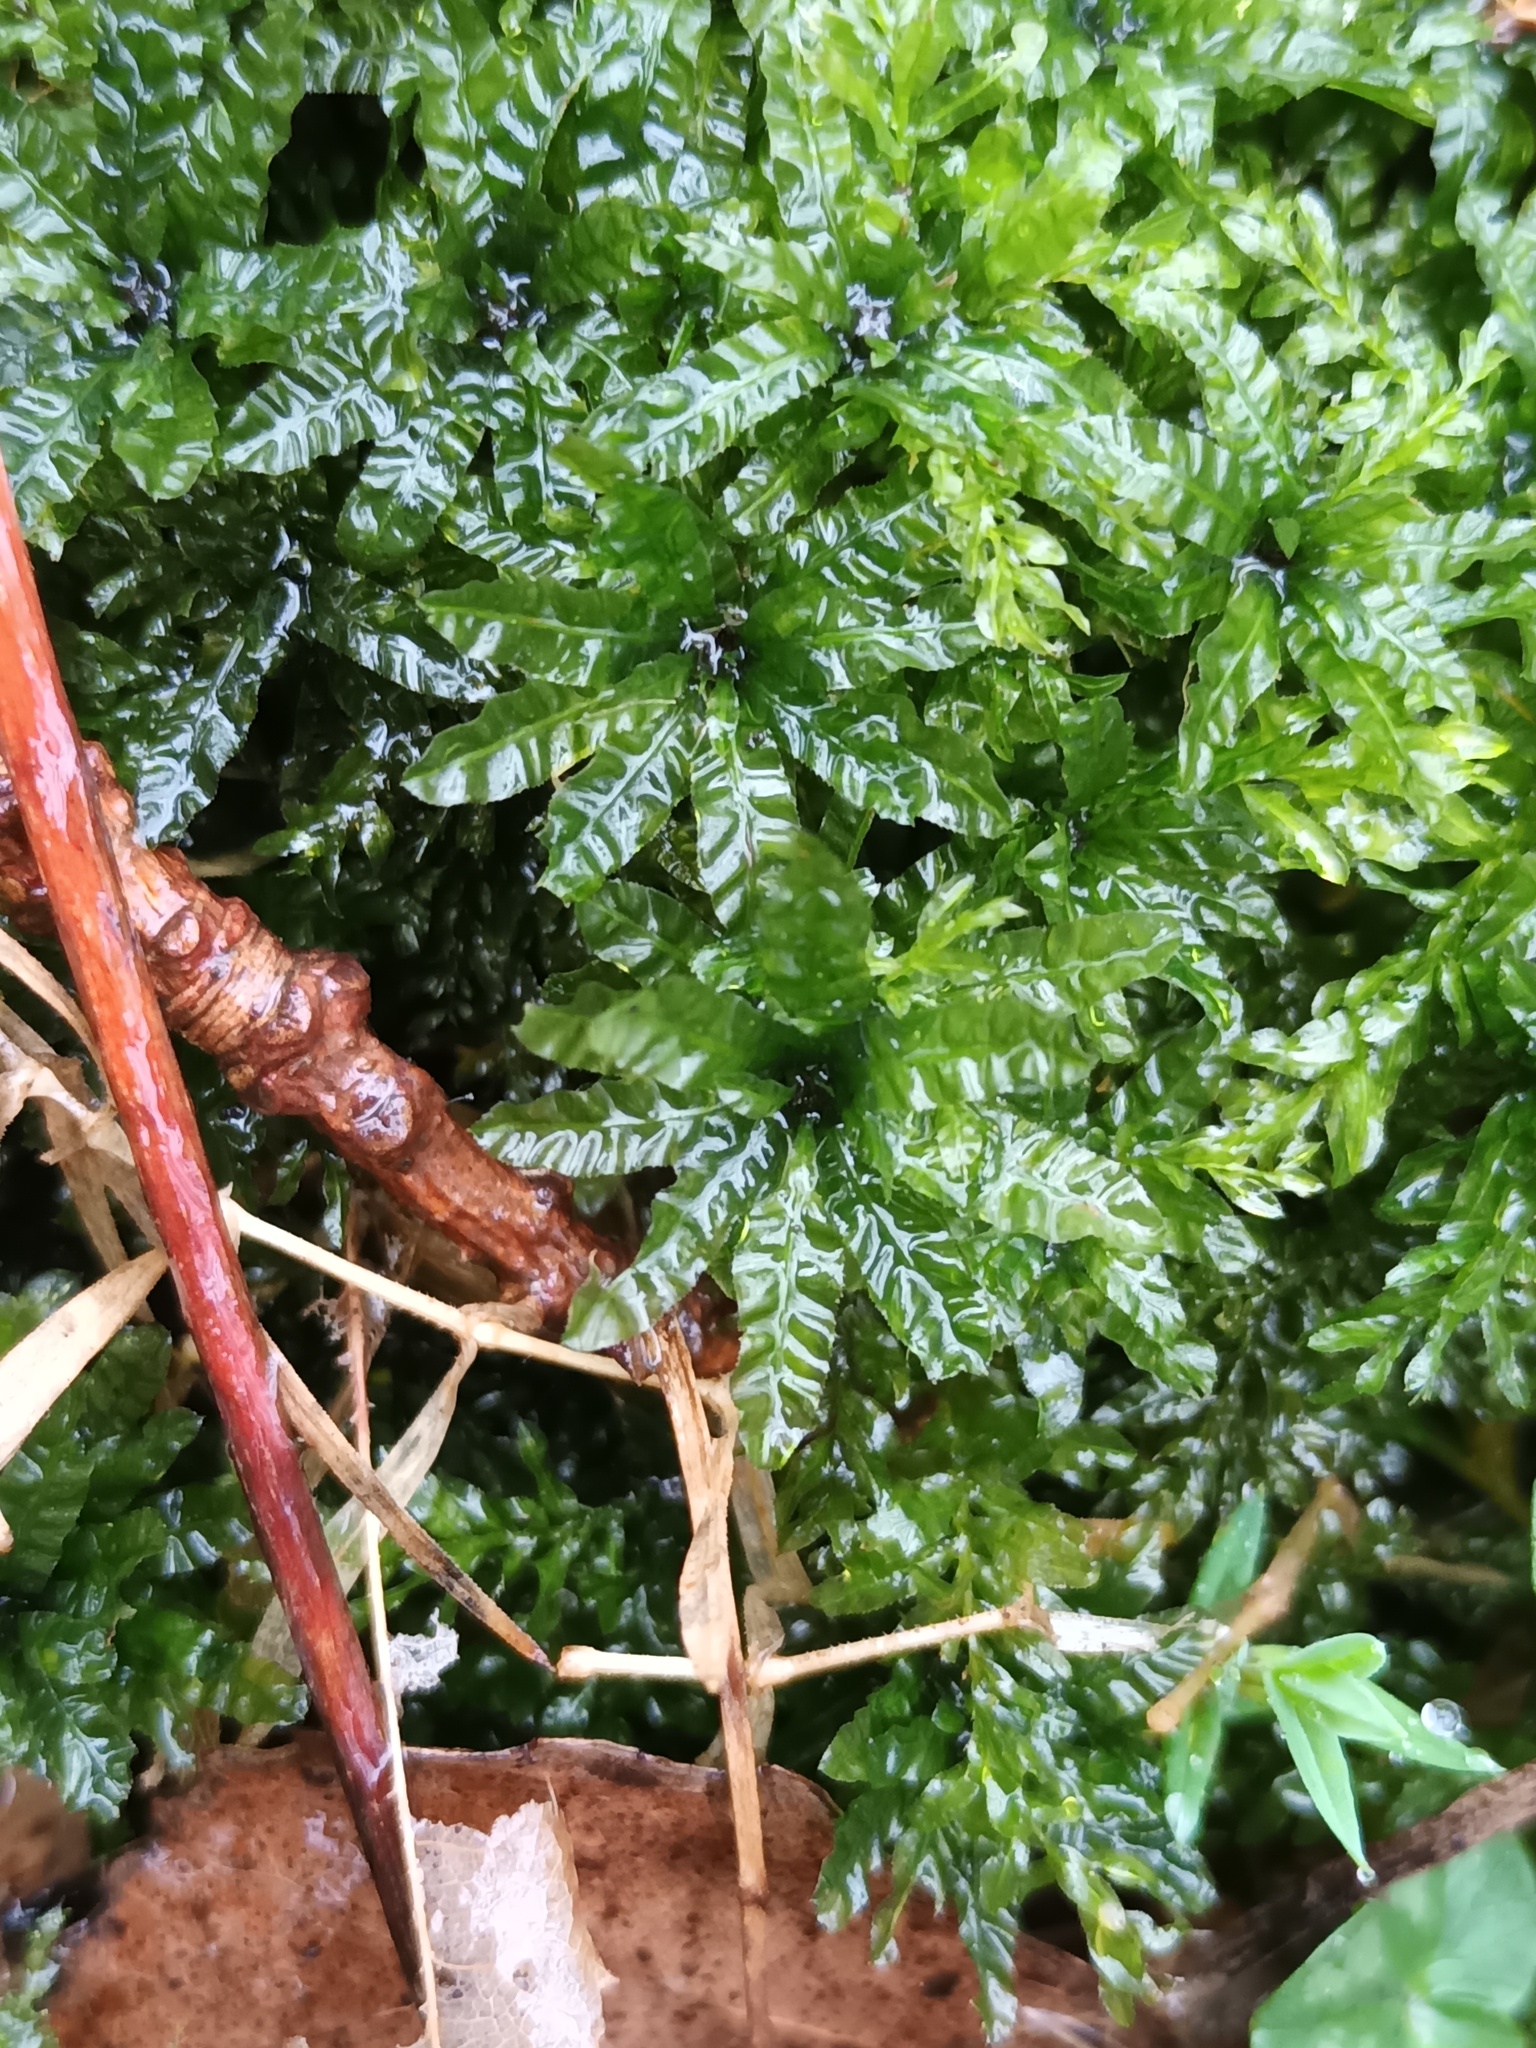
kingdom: Plantae
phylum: Bryophyta
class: Bryopsida
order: Bryales
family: Mniaceae
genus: Plagiomnium
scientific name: Plagiomnium undulatum
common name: Hart's-tongue thyme-moss
